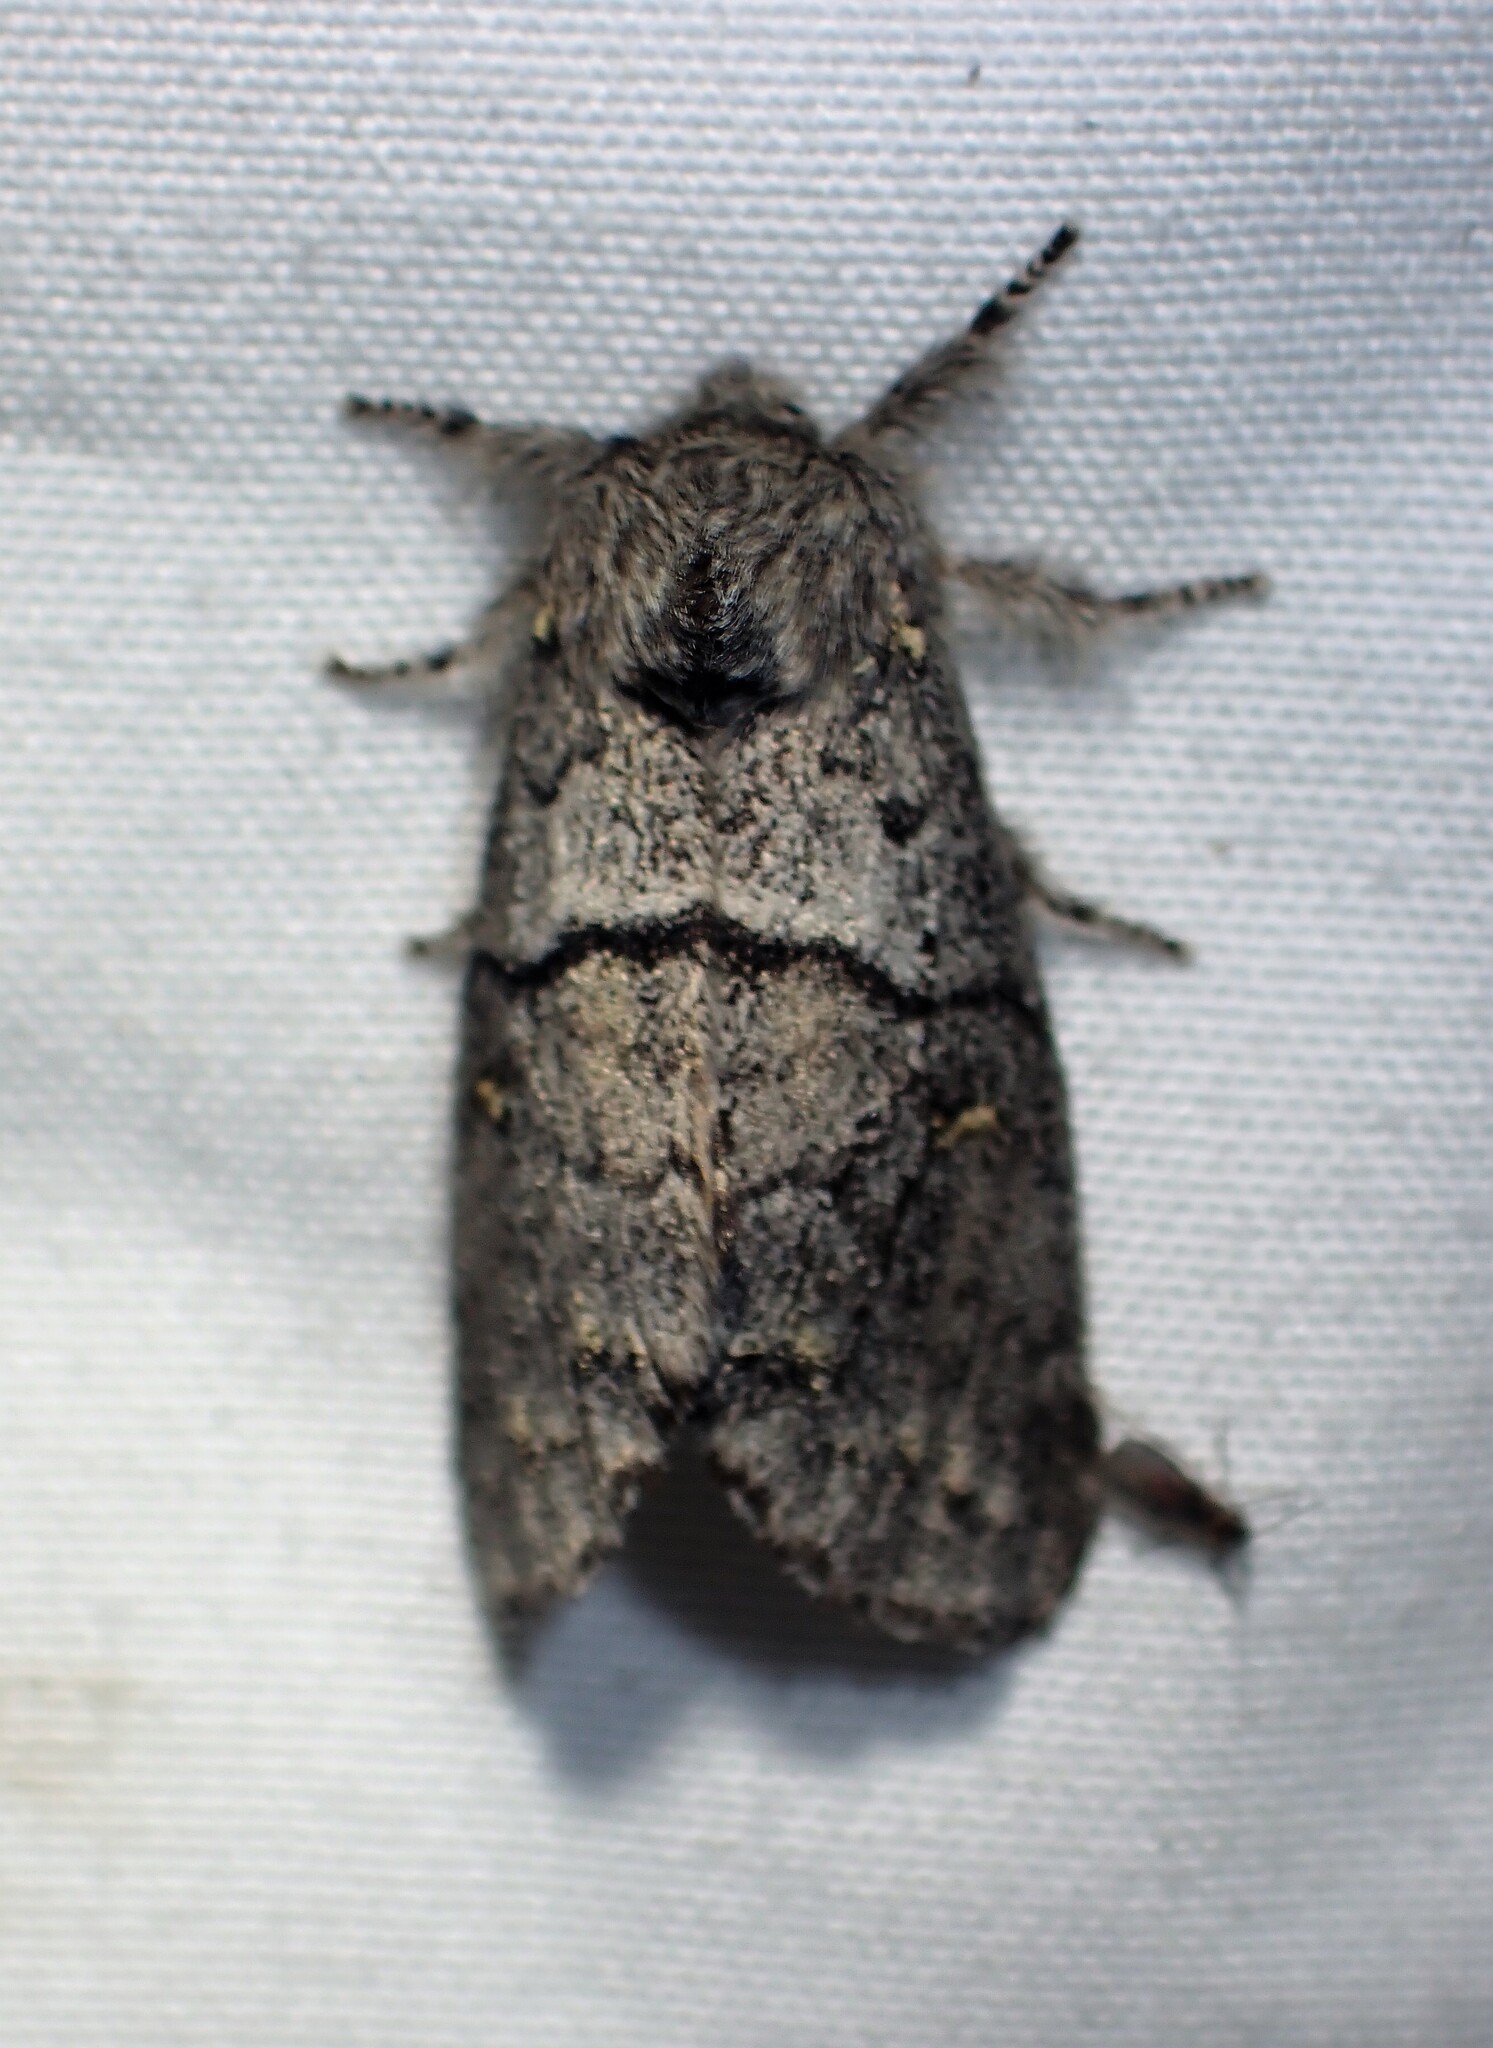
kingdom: Animalia
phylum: Arthropoda
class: Insecta
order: Lepidoptera
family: Notodontidae
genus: Gluphisia
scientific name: Gluphisia avimacula
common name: Four-spotted gluphisia moth
